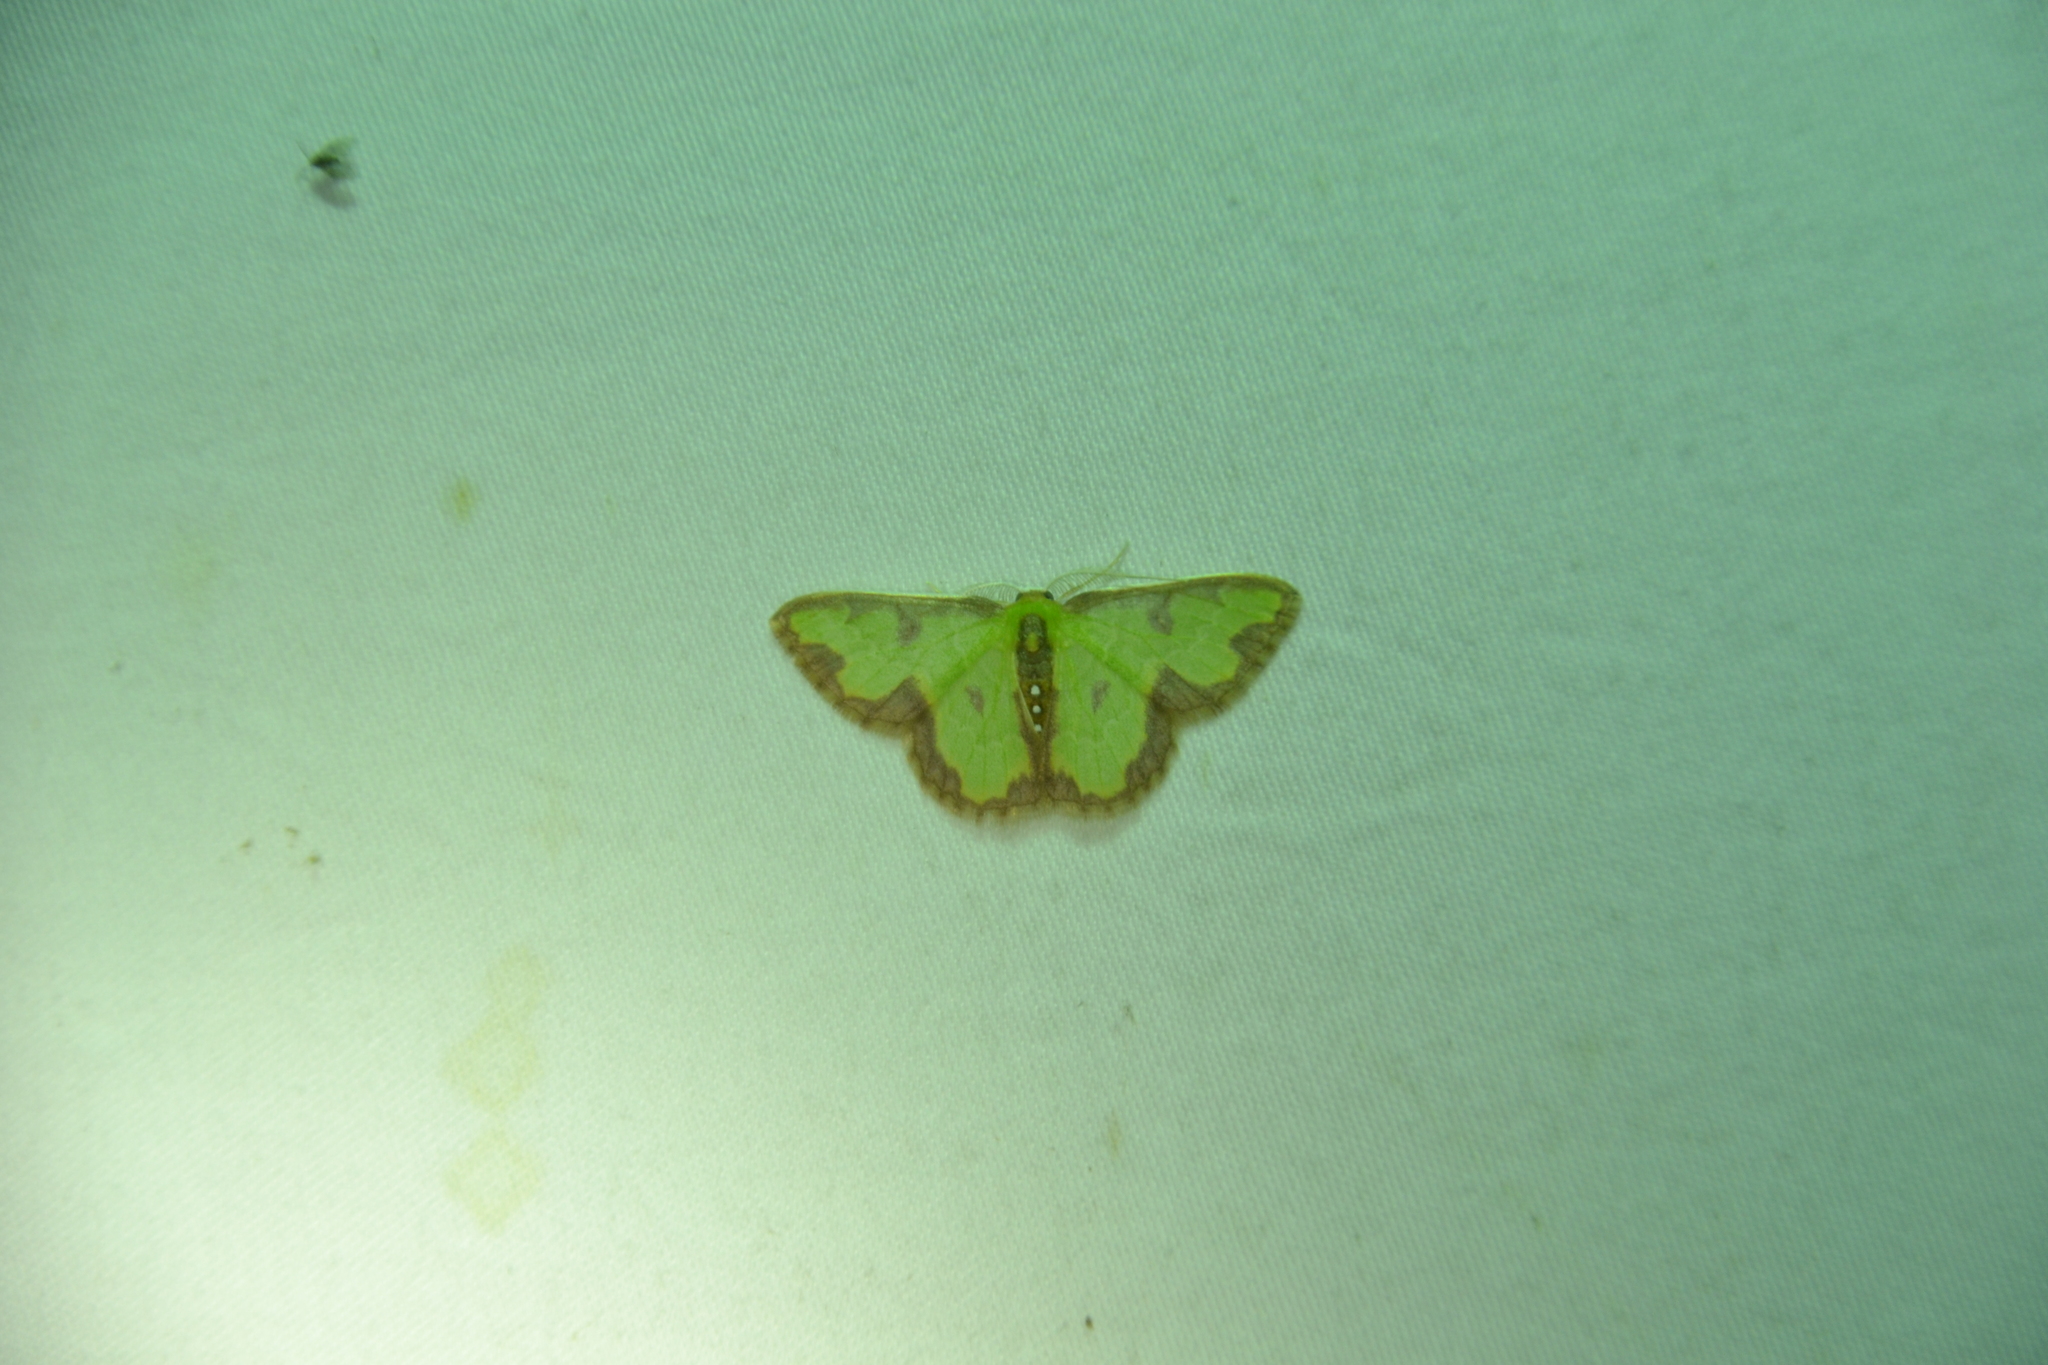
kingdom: Animalia
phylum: Arthropoda
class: Insecta
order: Lepidoptera
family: Geometridae
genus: Synchlora
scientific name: Synchlora dependens
